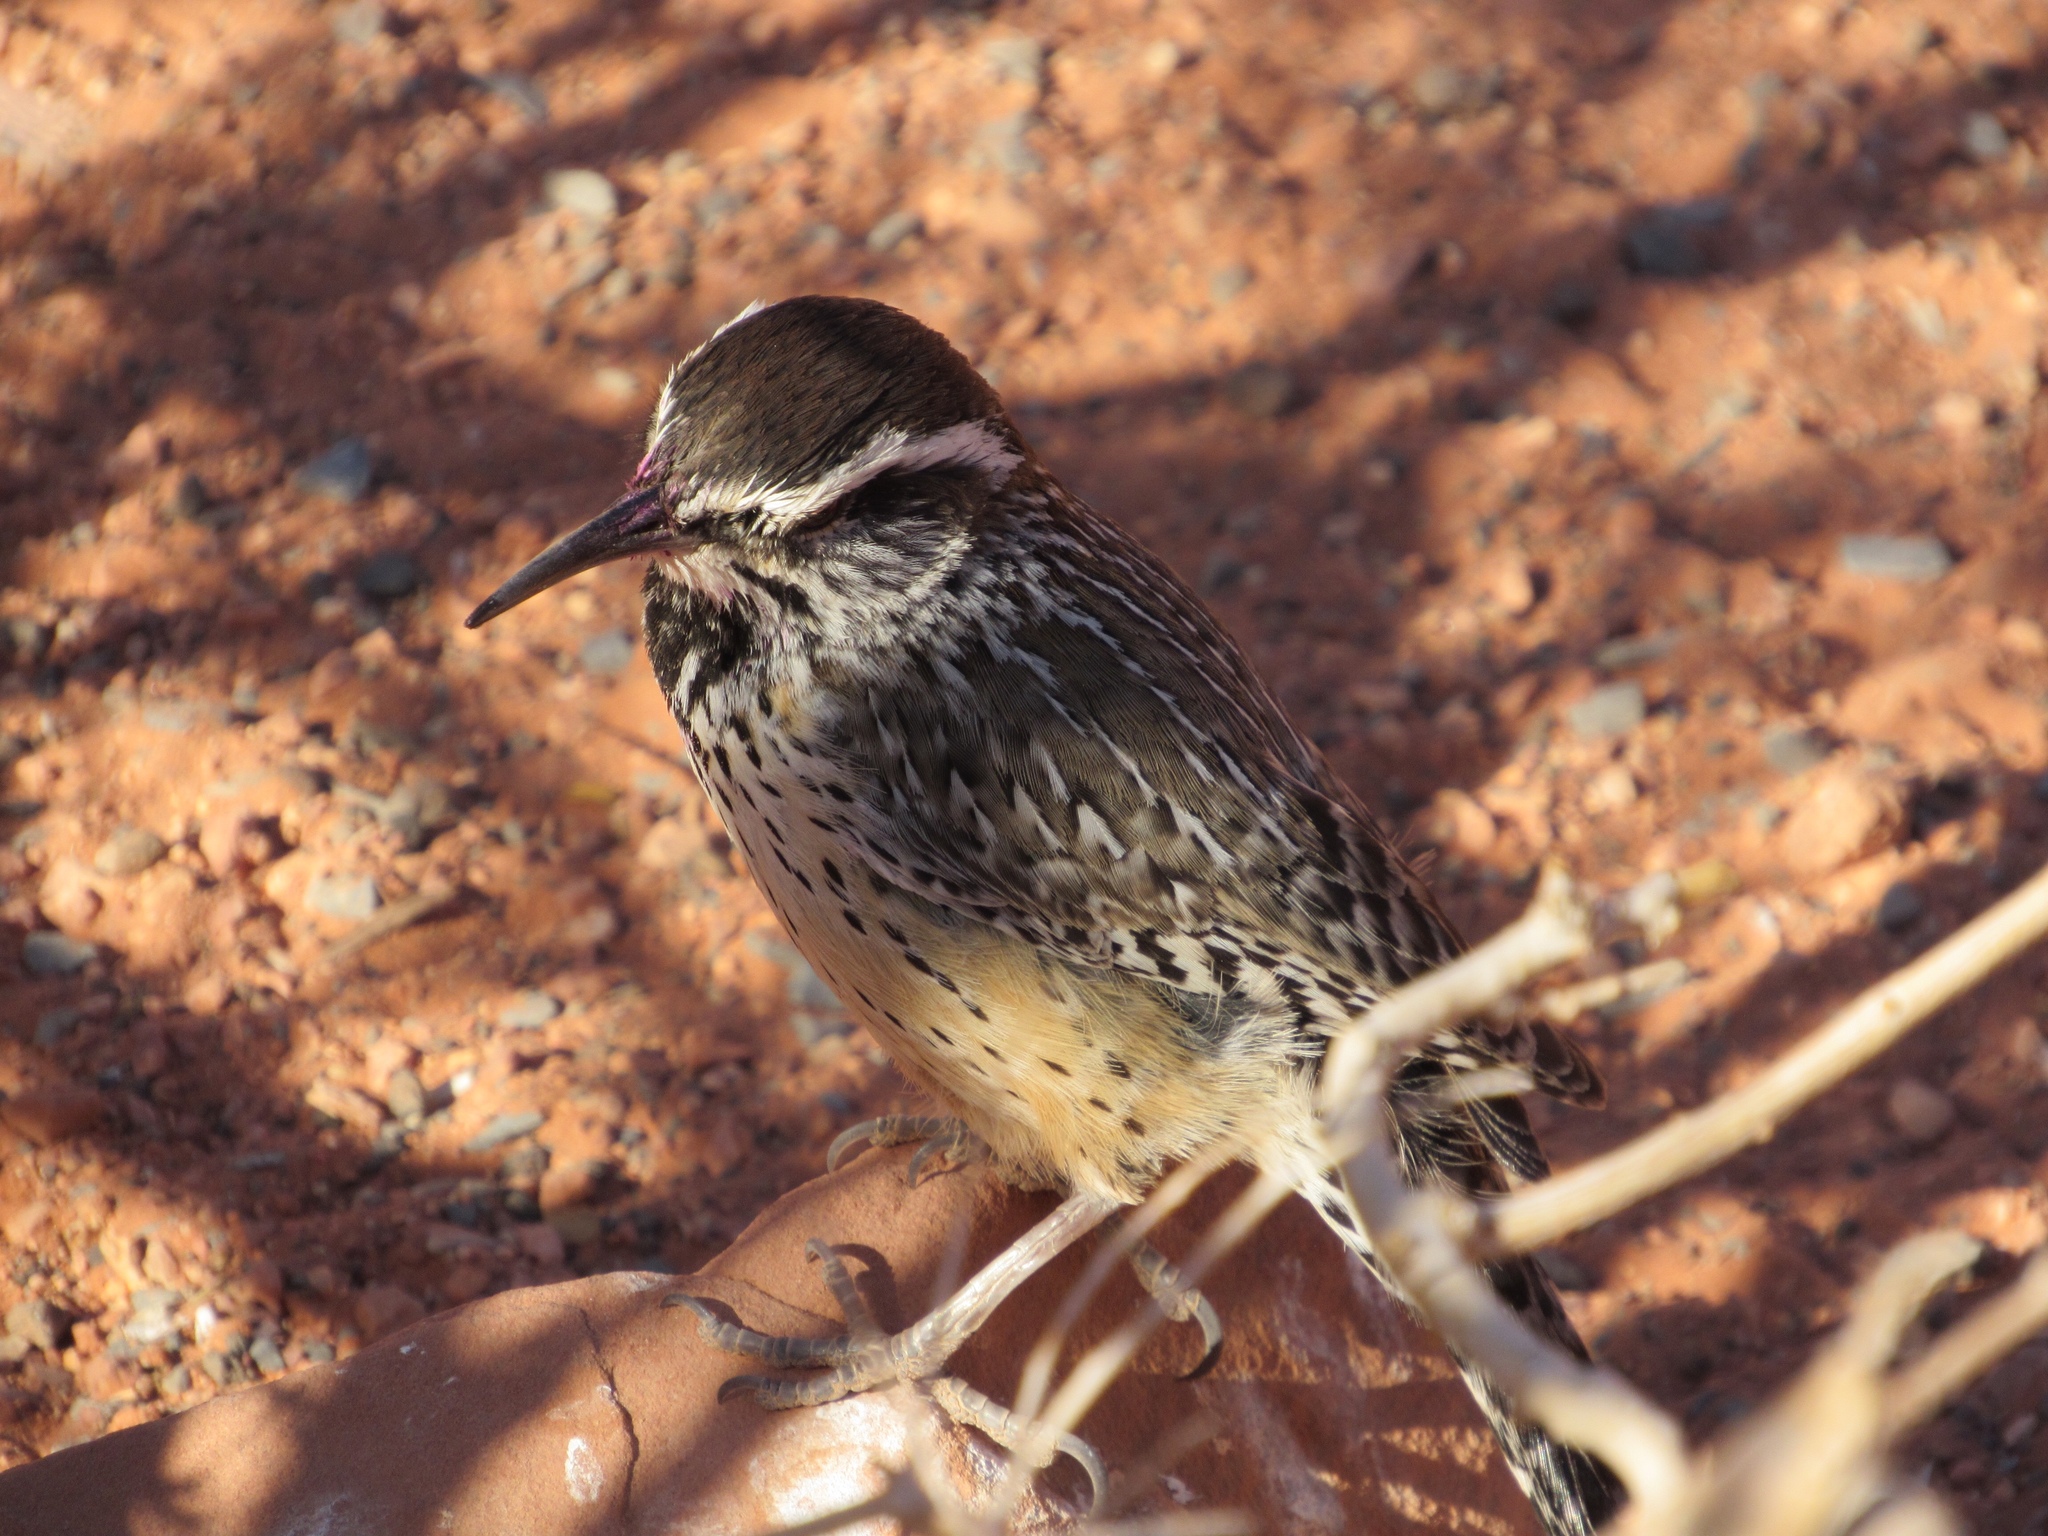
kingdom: Animalia
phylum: Chordata
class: Aves
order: Passeriformes
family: Troglodytidae
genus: Campylorhynchus
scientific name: Campylorhynchus brunneicapillus
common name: Cactus wren
